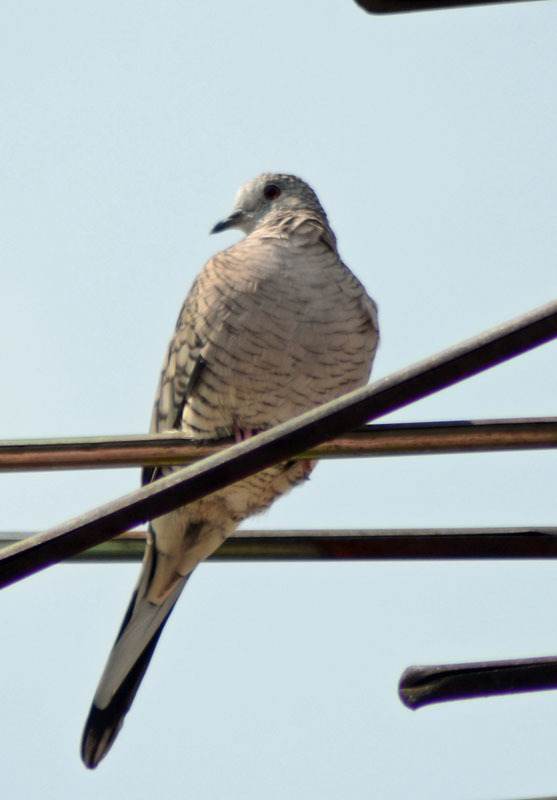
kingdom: Animalia
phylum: Chordata
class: Aves
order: Columbiformes
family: Columbidae
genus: Columbina
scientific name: Columbina inca
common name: Inca dove
